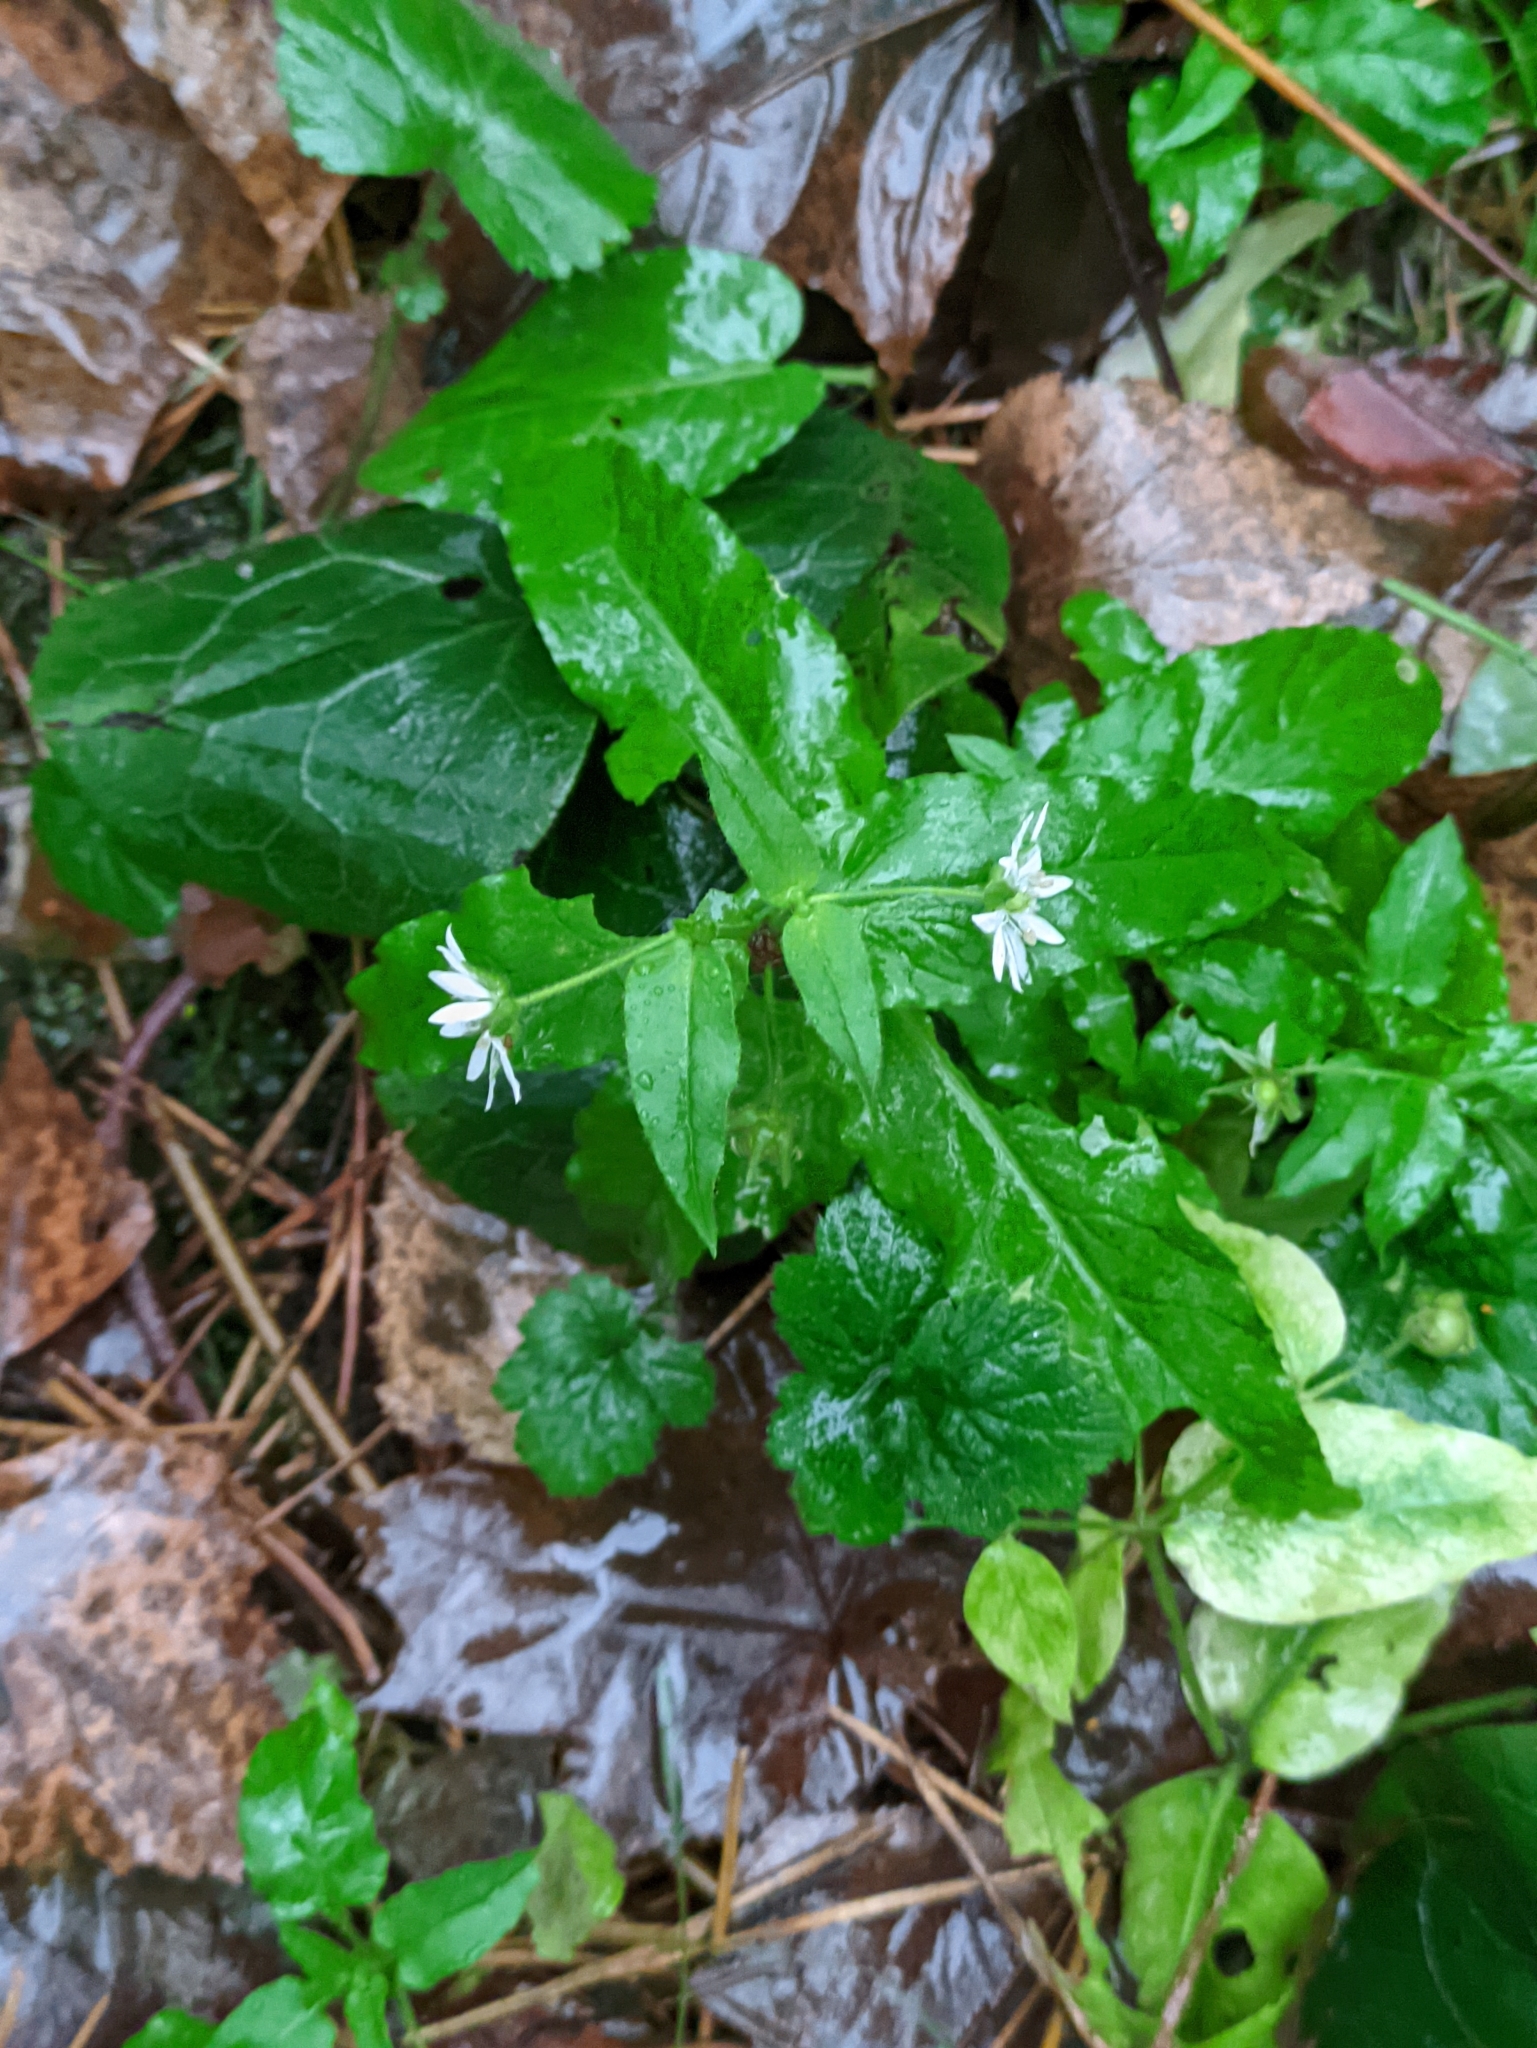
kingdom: Plantae
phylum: Tracheophyta
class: Magnoliopsida
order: Caryophyllales
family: Caryophyllaceae
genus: Stellaria
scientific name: Stellaria aquatica
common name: Water chickweed
